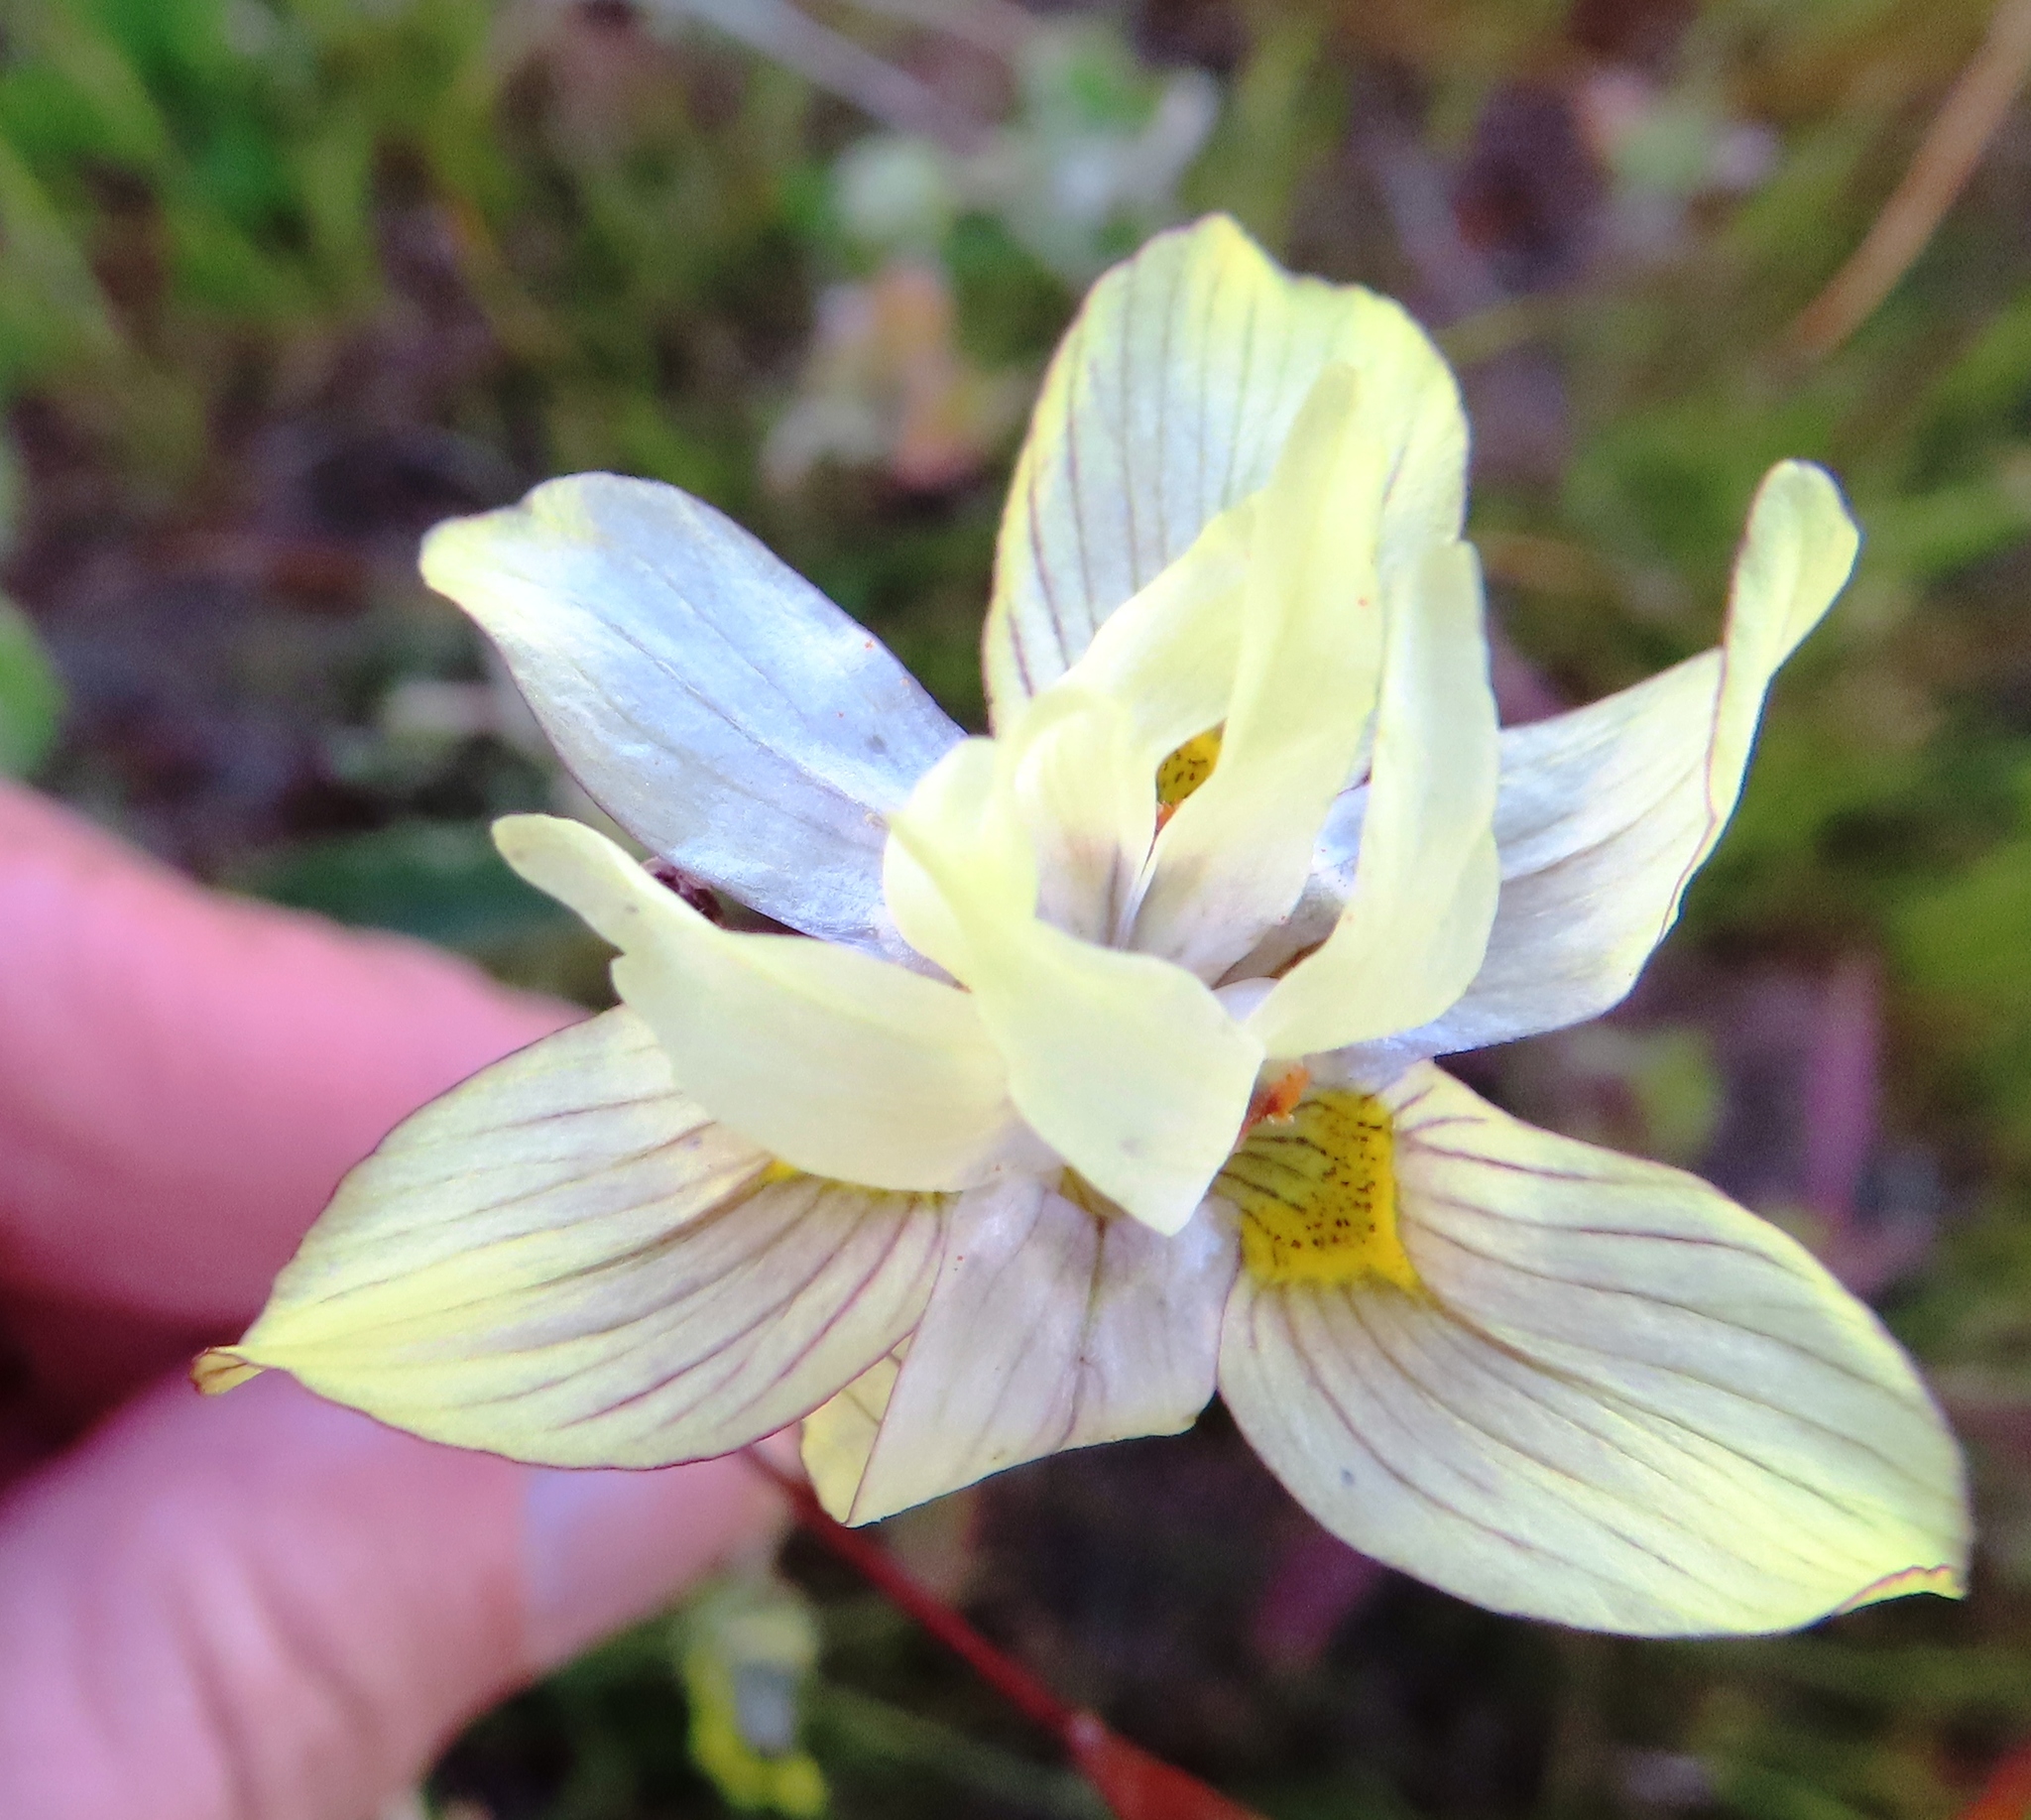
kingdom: Plantae
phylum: Tracheophyta
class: Liliopsida
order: Asparagales
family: Iridaceae
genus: Moraea
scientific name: Moraea gawleri
